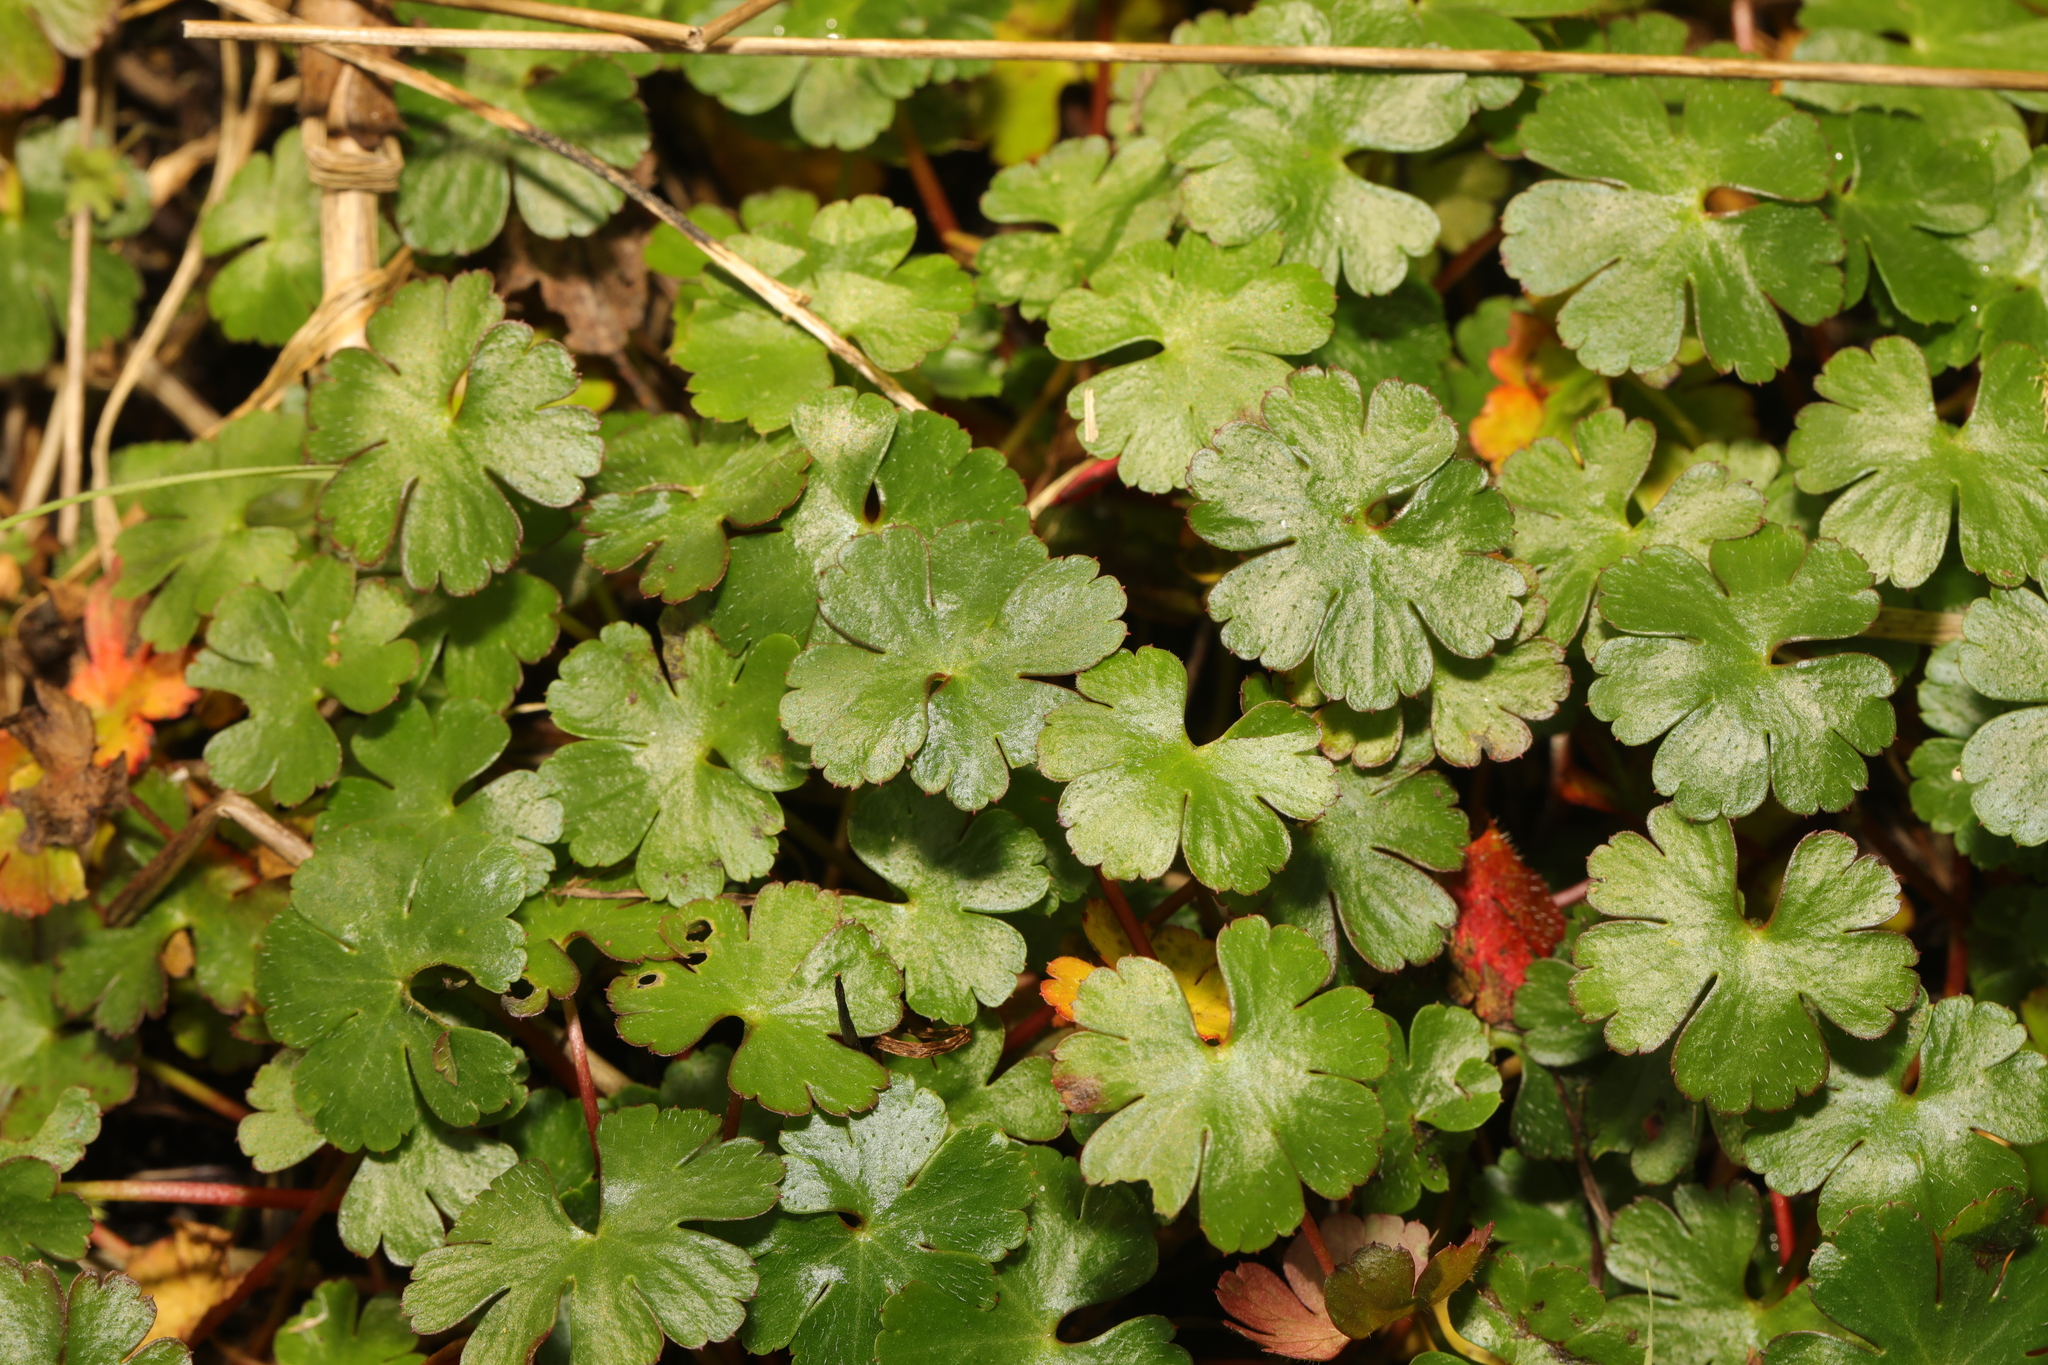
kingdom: Plantae
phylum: Tracheophyta
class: Magnoliopsida
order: Geraniales
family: Geraniaceae
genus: Geranium
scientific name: Geranium lucidum
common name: Shining crane's-bill
